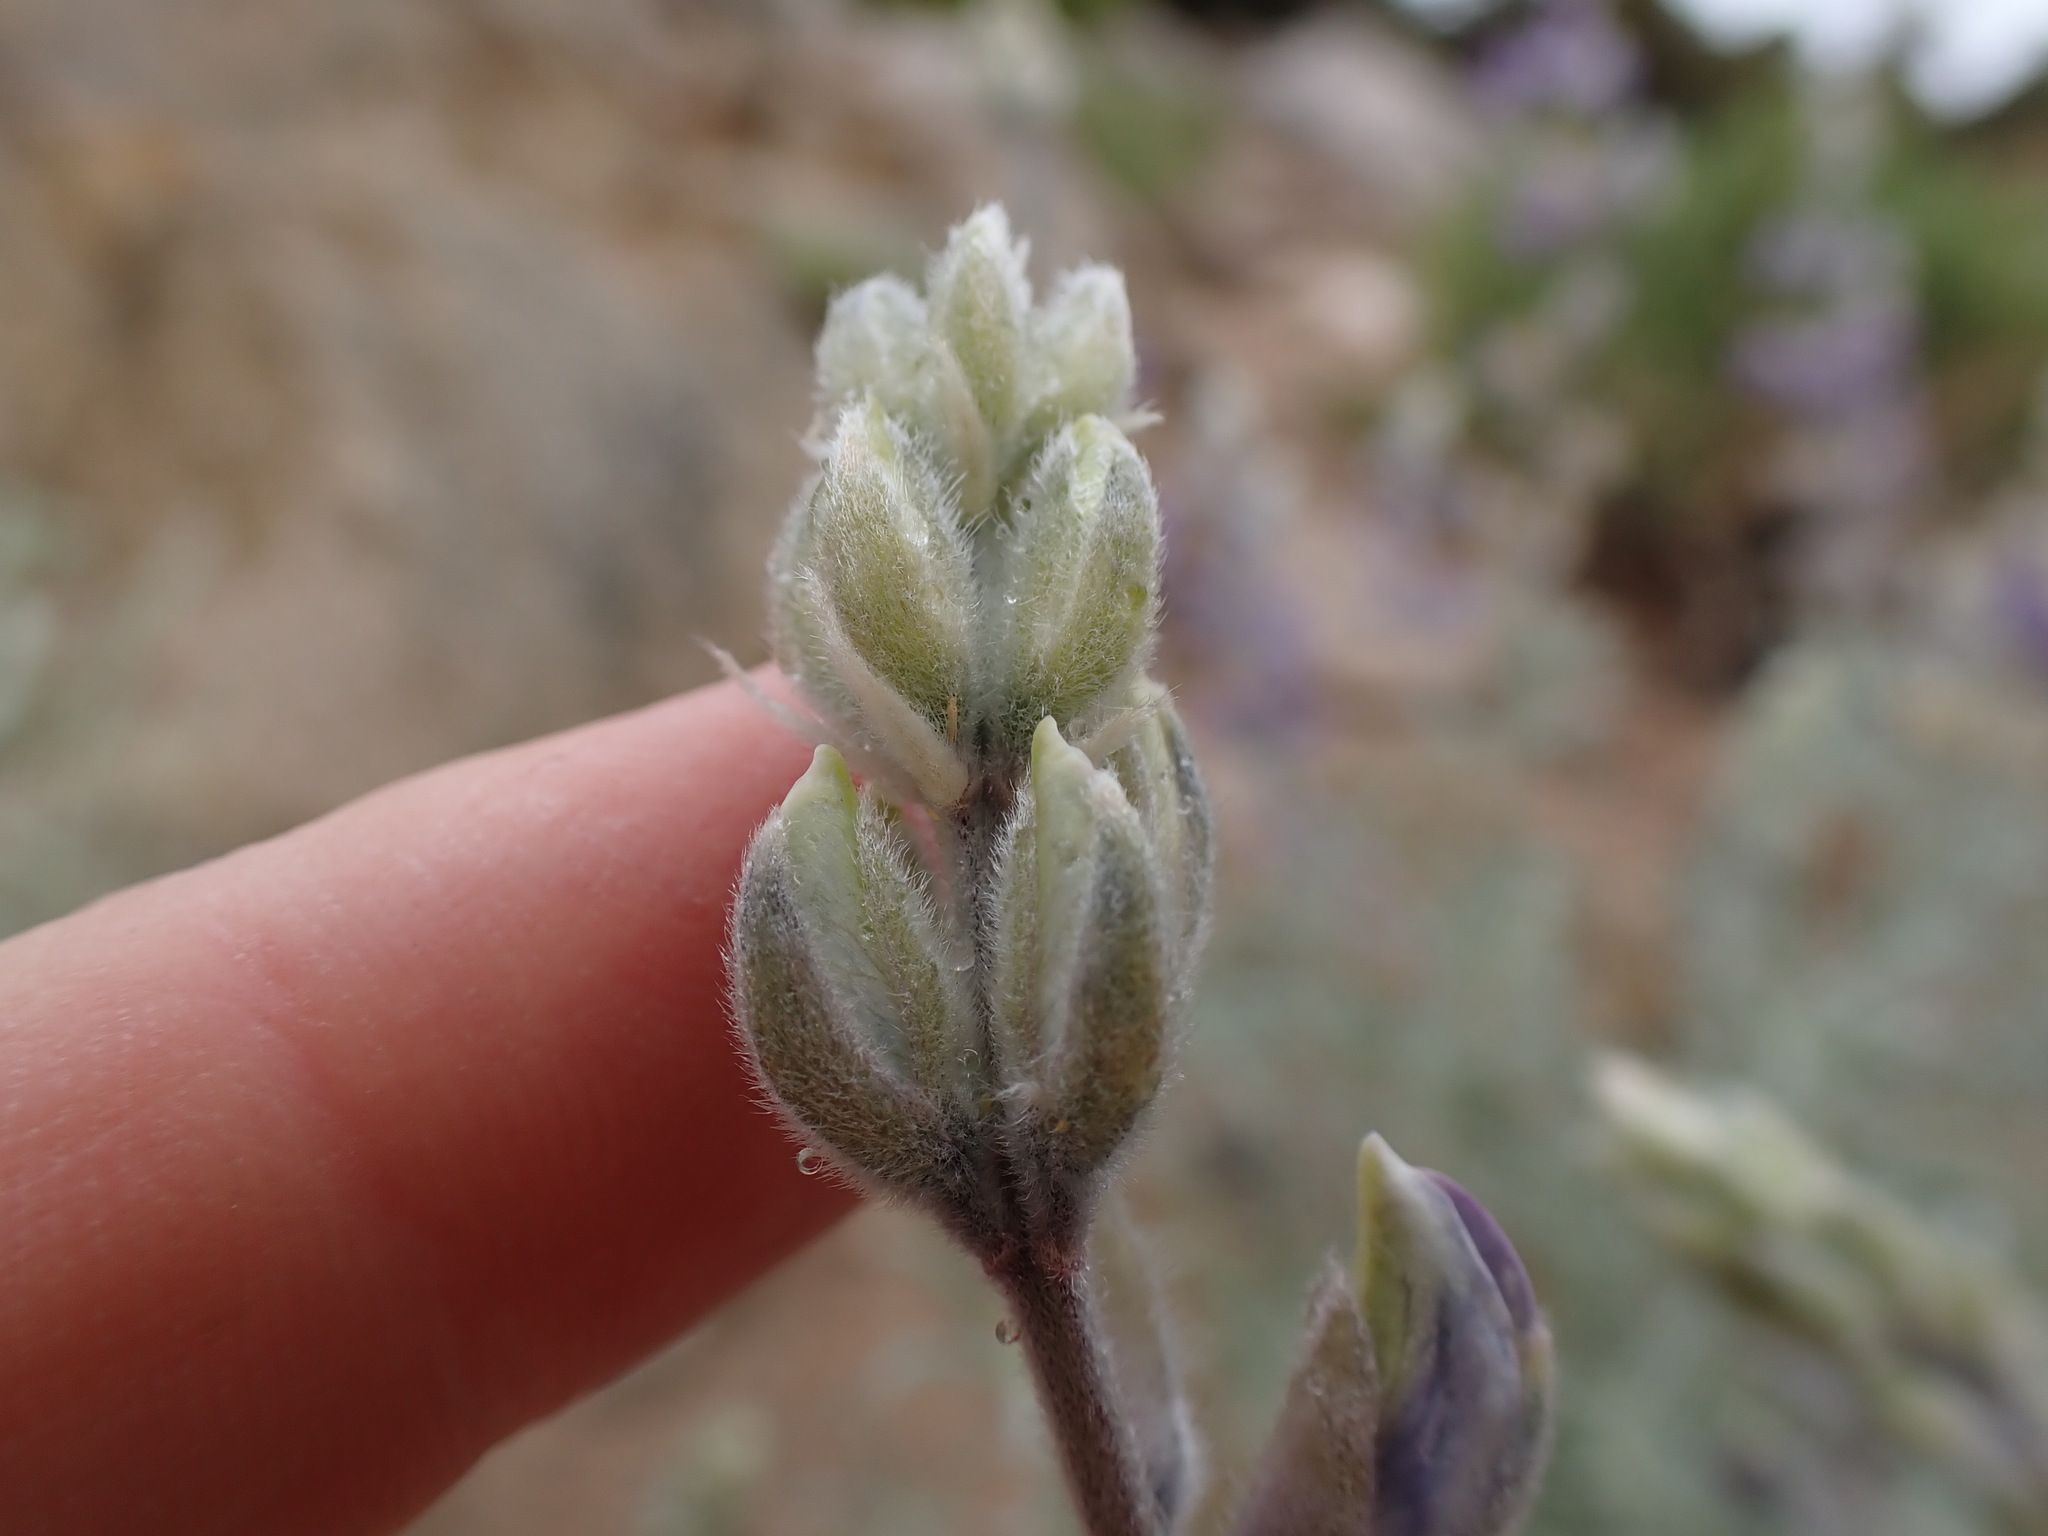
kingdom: Plantae
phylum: Tracheophyta
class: Magnoliopsida
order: Fabales
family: Fabaceae
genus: Lupinus
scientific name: Lupinus padre-crowleyi
